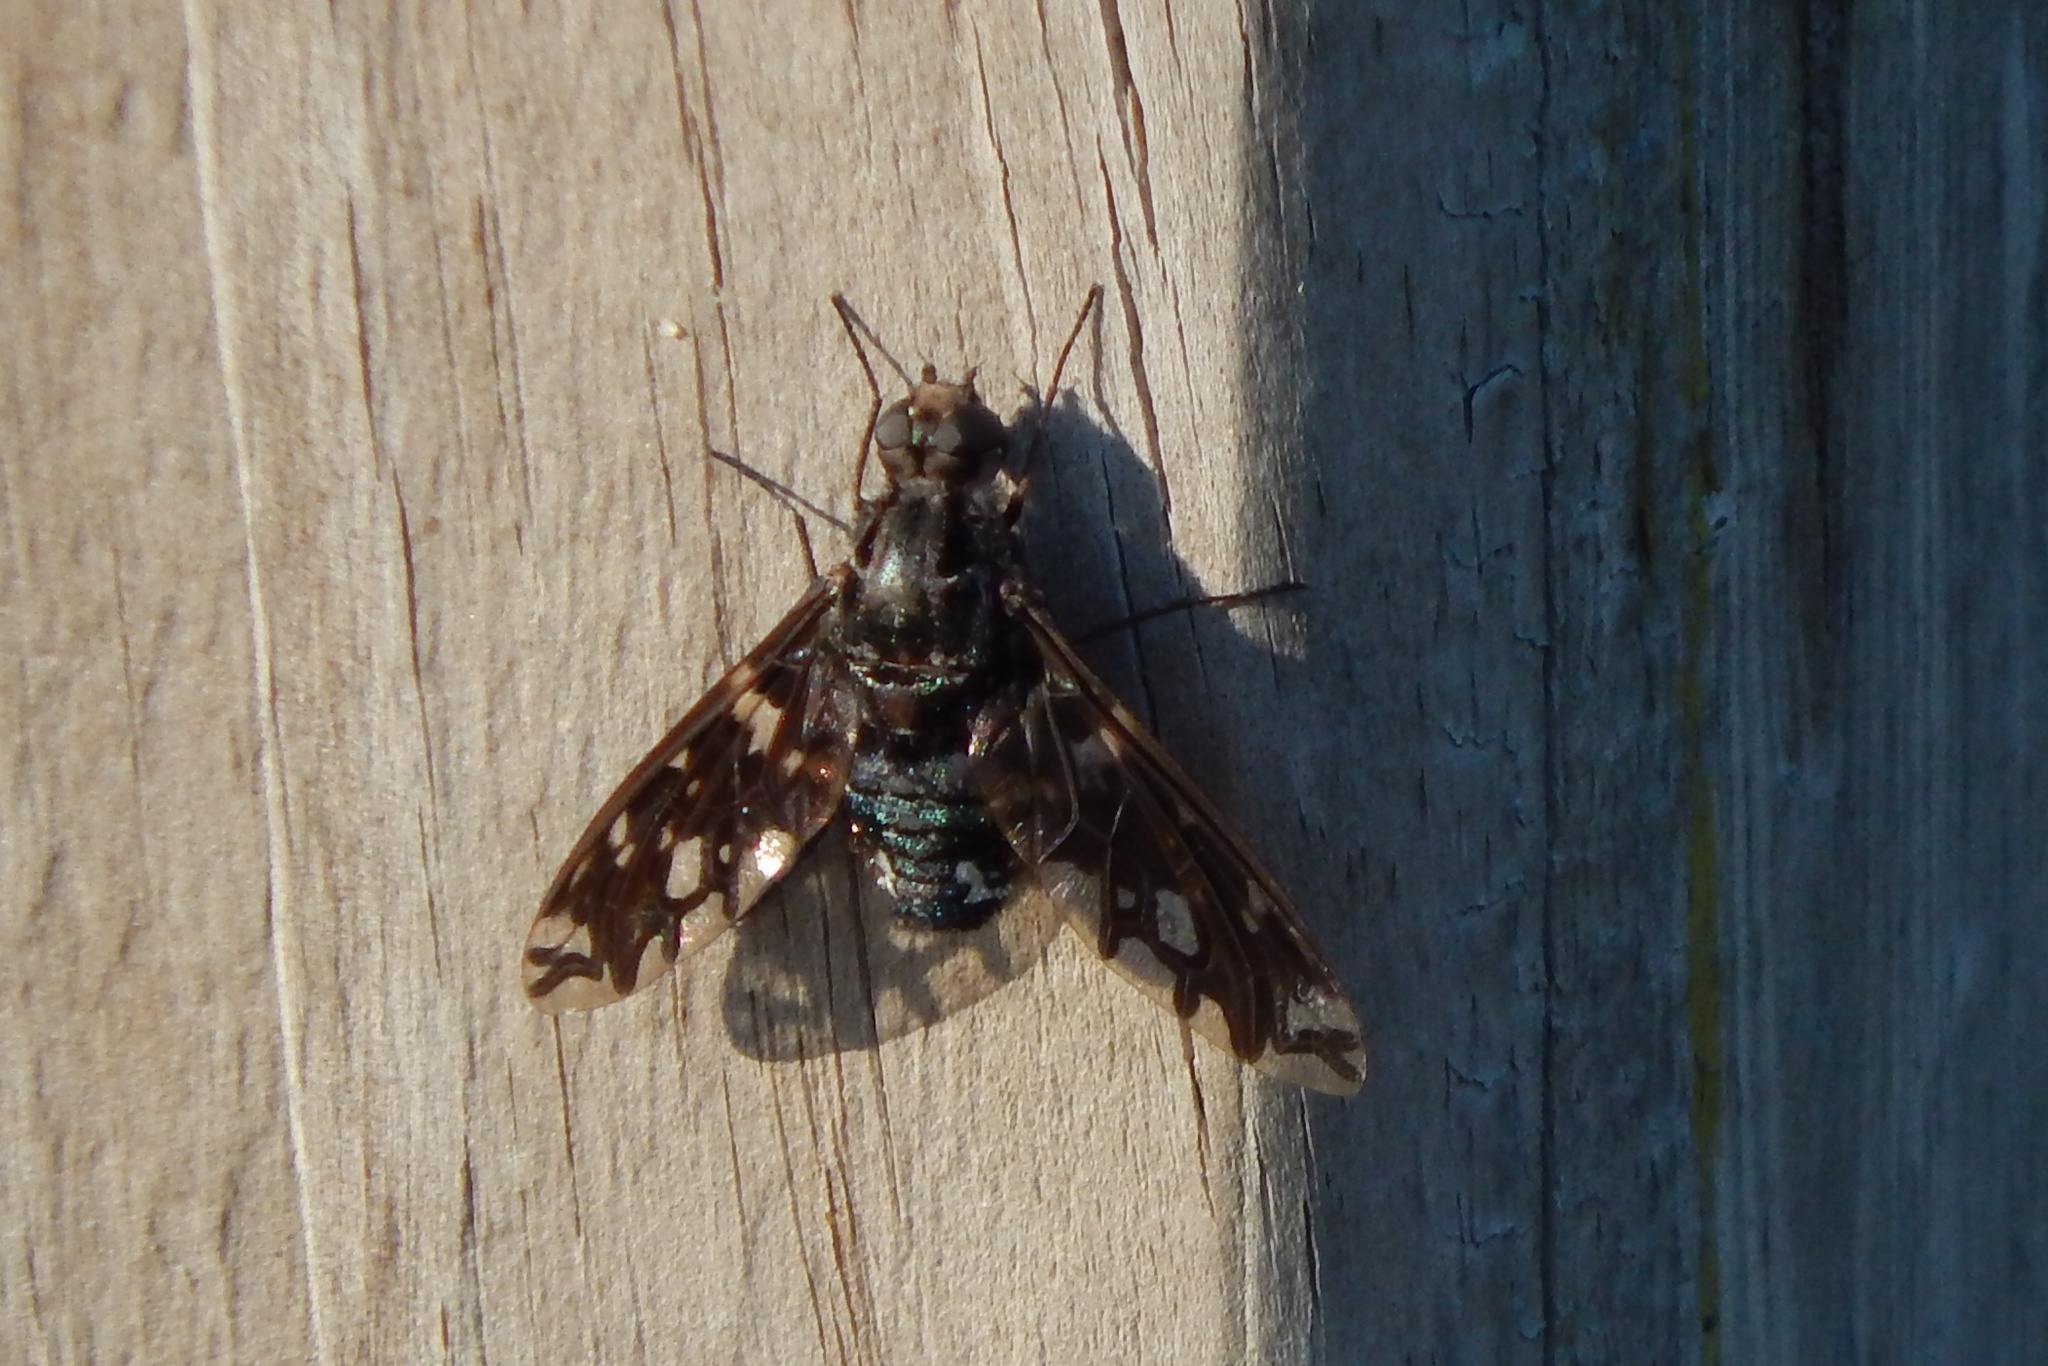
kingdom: Animalia
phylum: Arthropoda
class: Insecta
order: Diptera
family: Bombyliidae
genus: Xenox
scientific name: Xenox tigrinus
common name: Tiger bee fly
